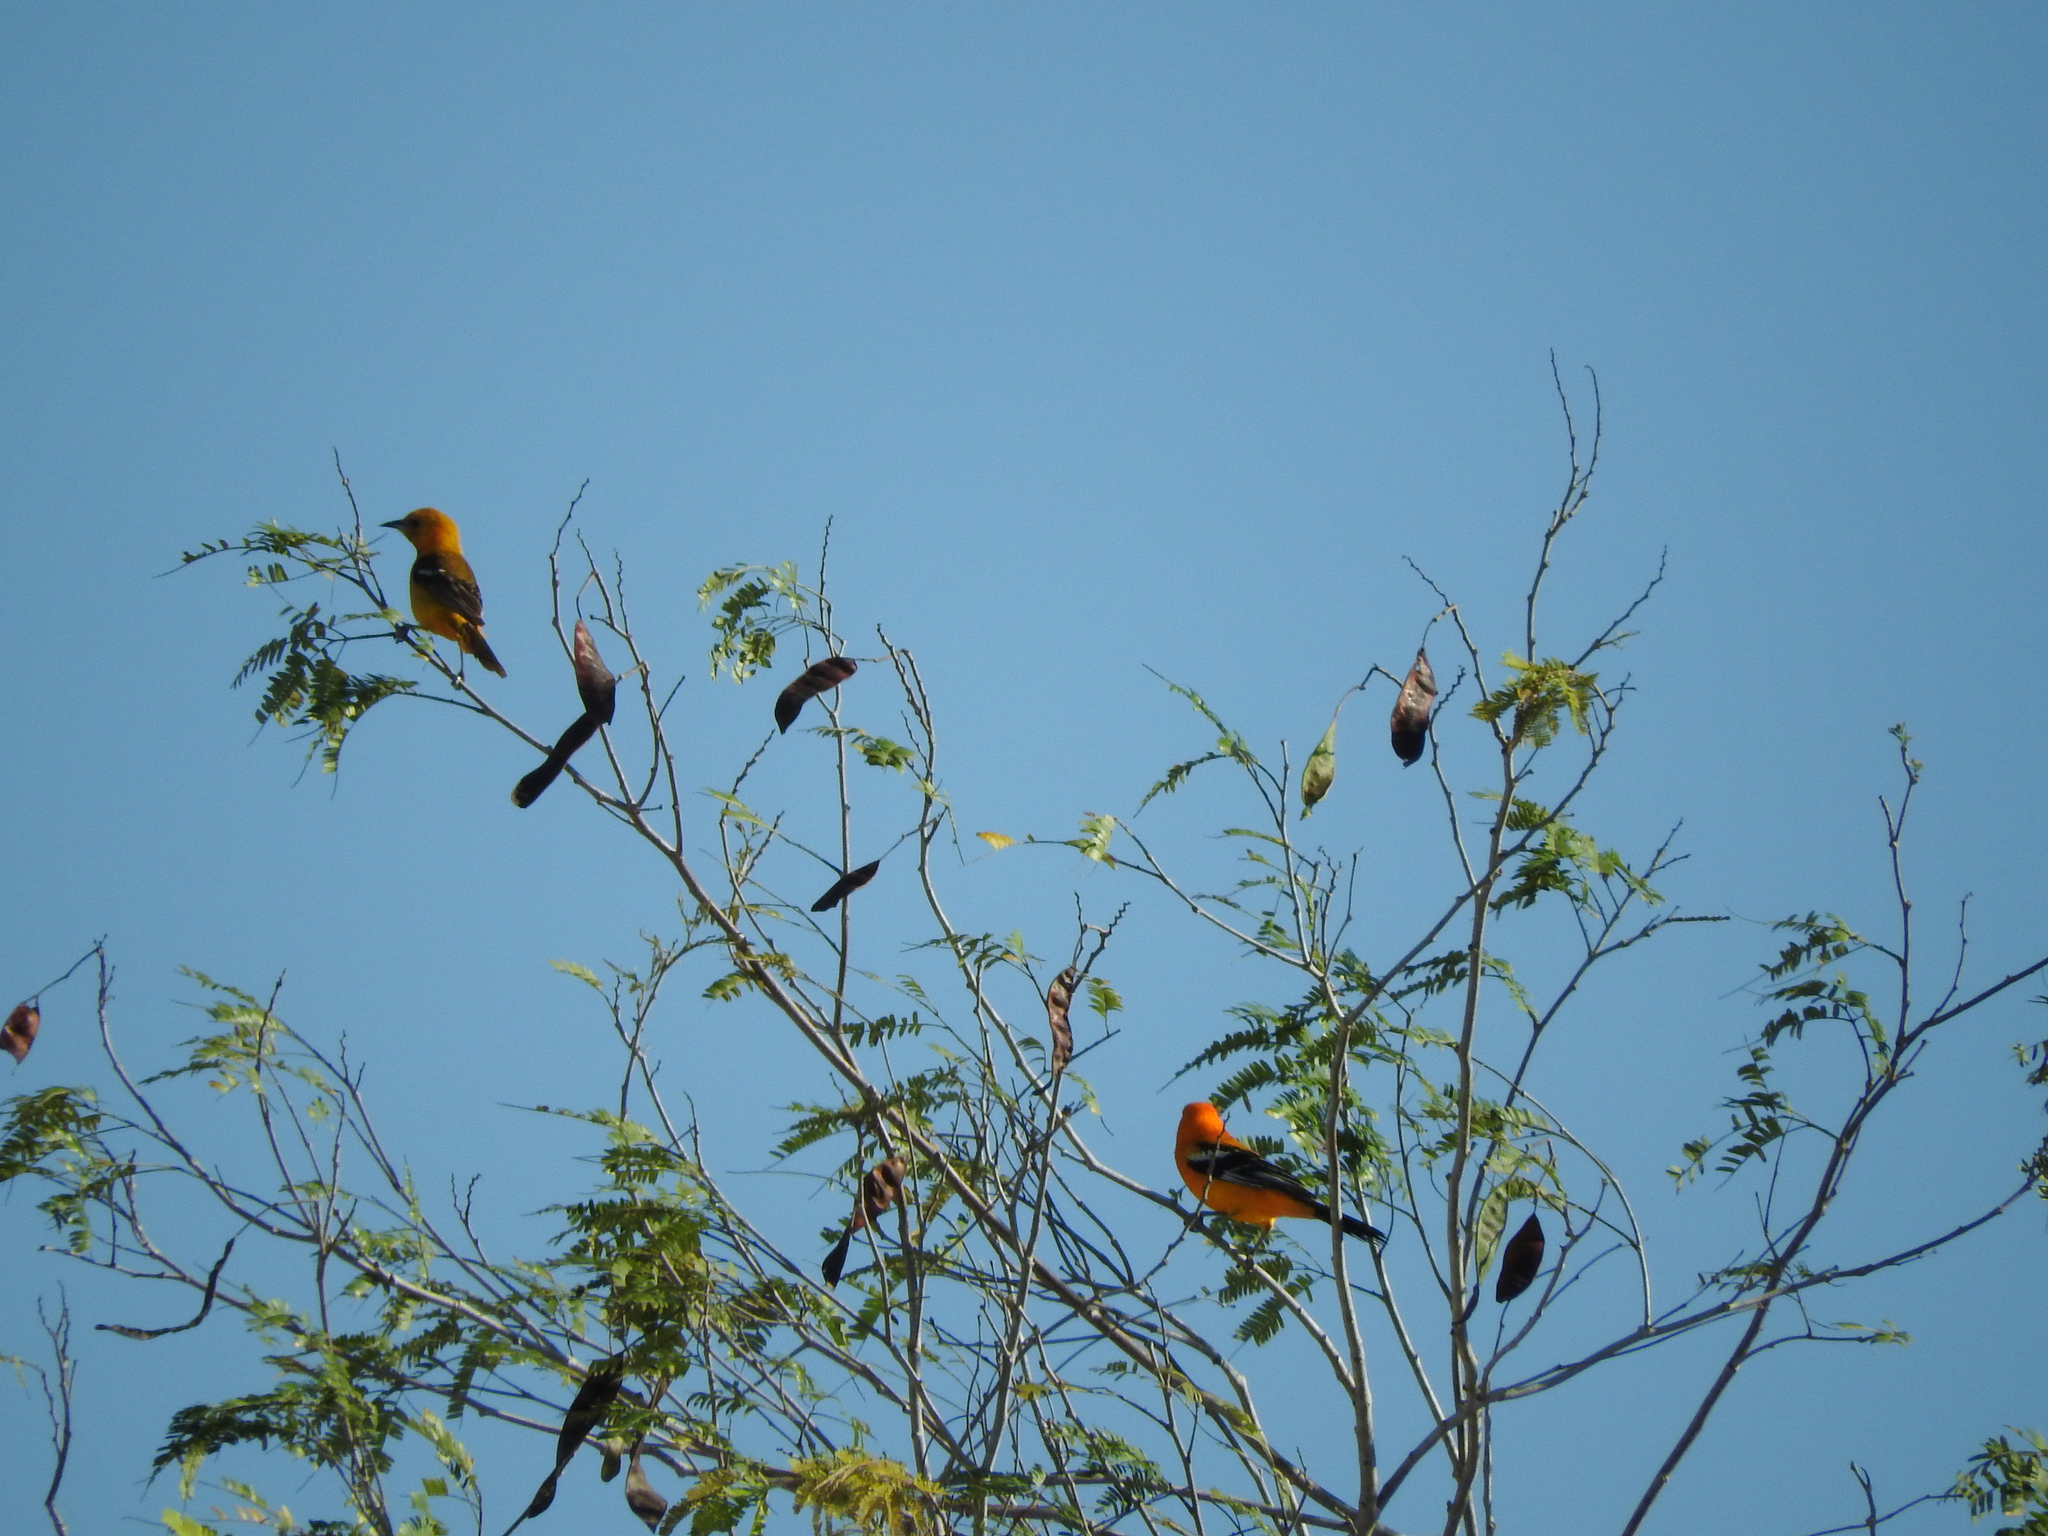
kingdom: Animalia
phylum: Chordata
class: Aves
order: Passeriformes
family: Icteridae
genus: Icterus
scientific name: Icterus auratus
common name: Orange oriole
